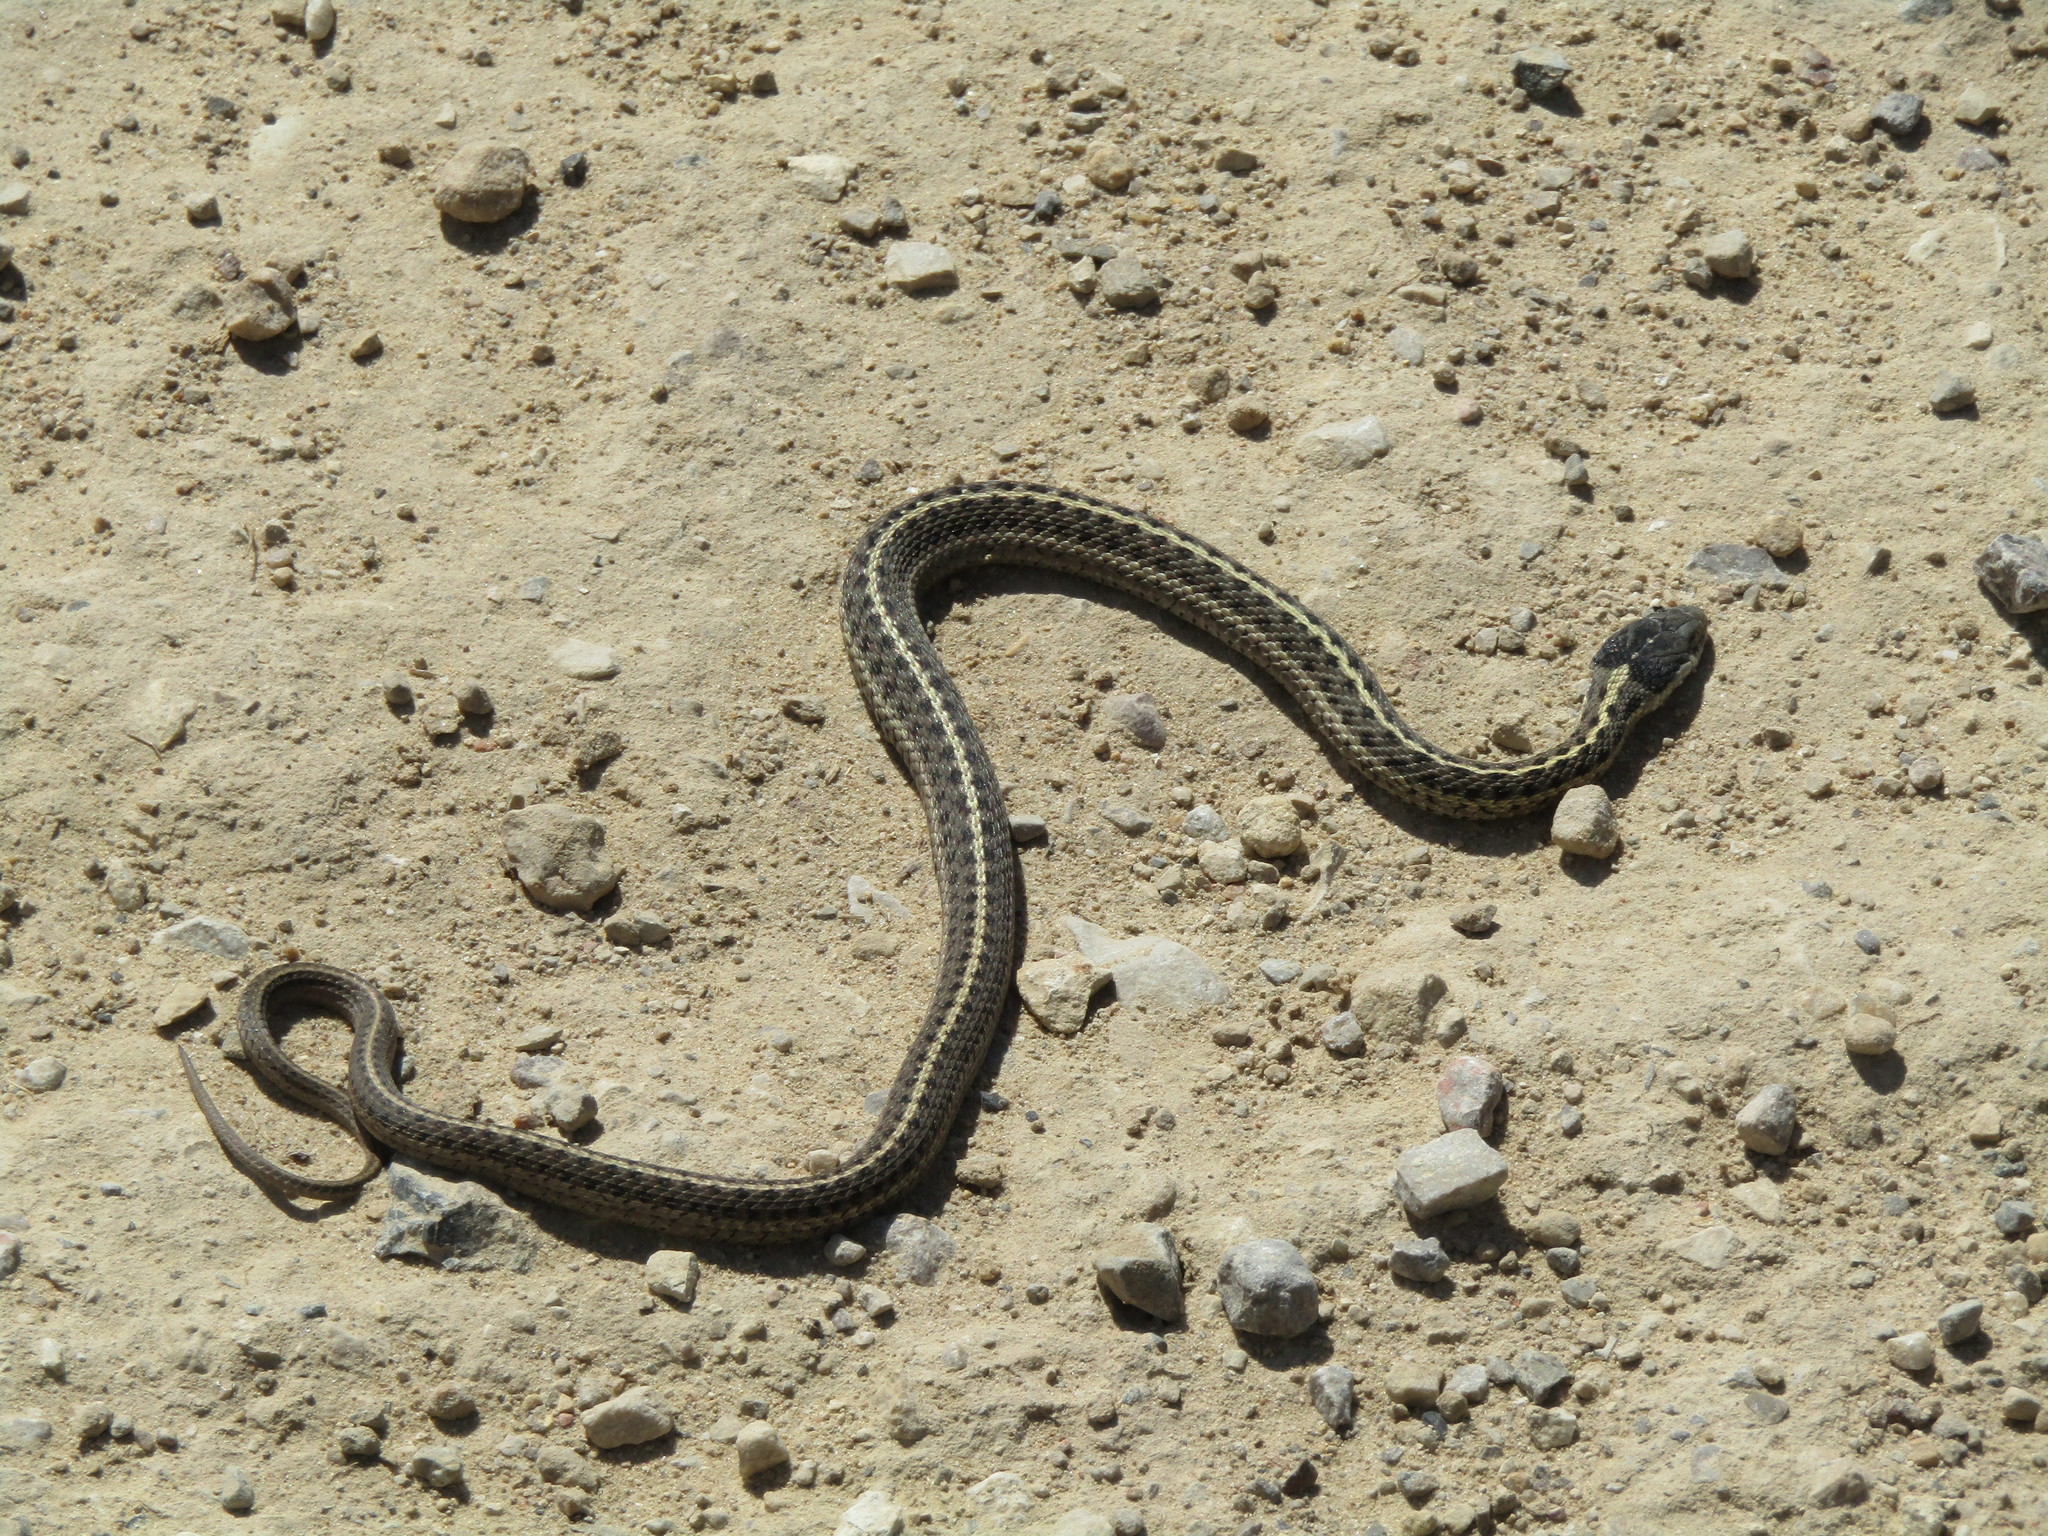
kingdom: Animalia
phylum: Chordata
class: Squamata
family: Colubridae
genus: Thamnophis
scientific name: Thamnophis elegans
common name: Western terrestrial garter snake
